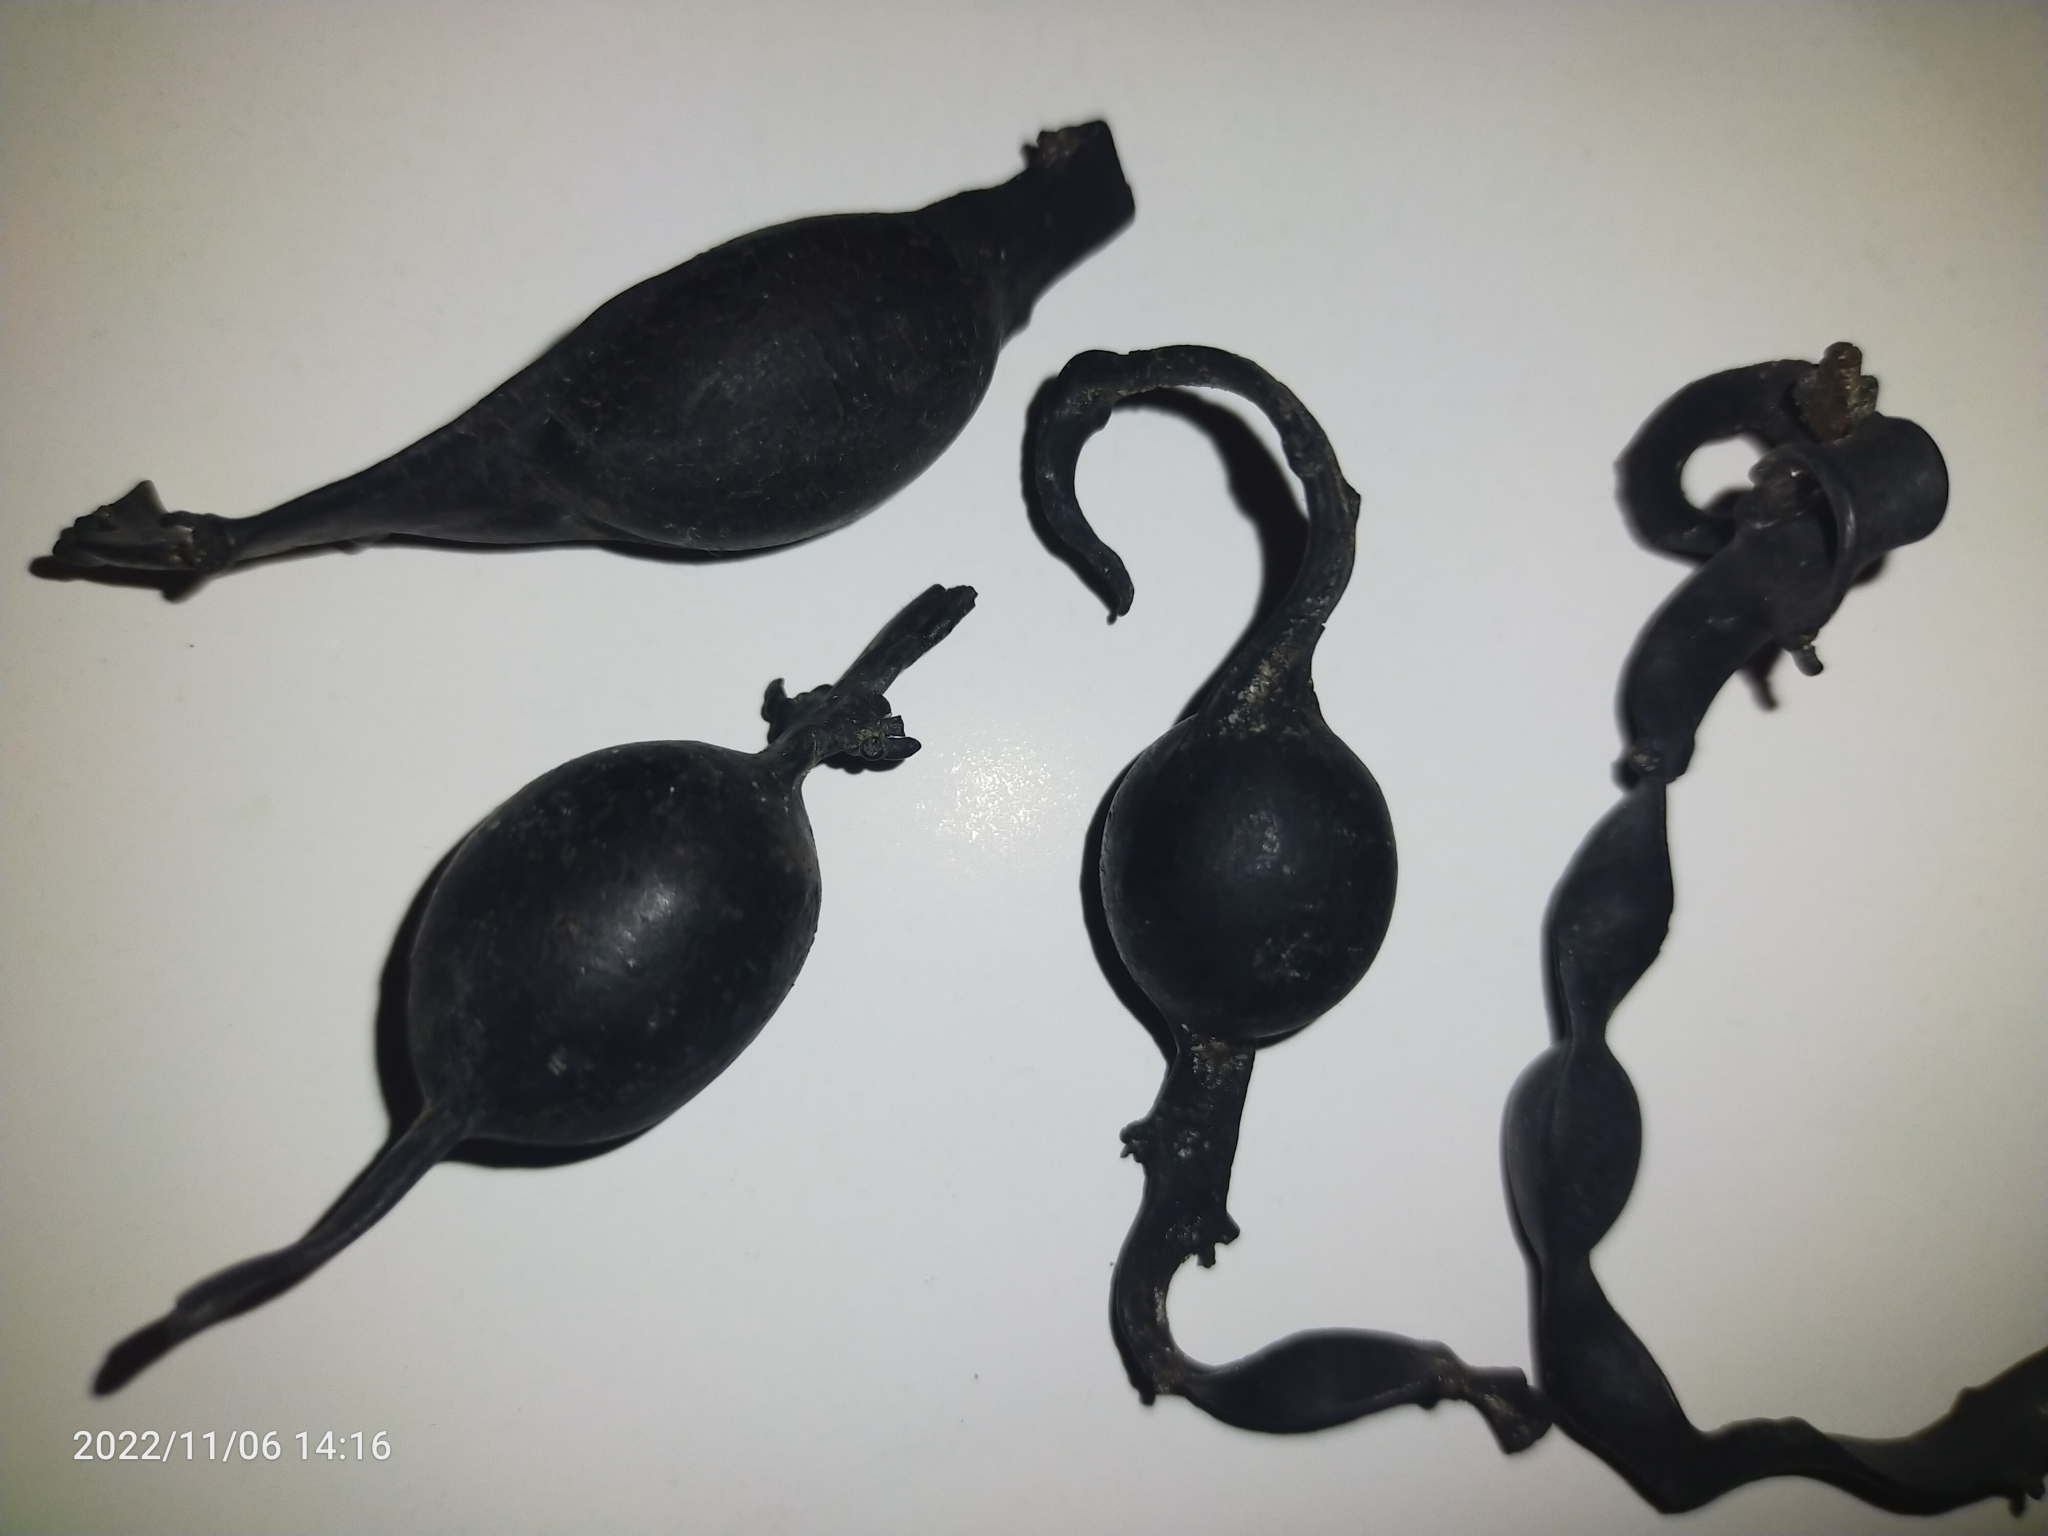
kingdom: Chromista
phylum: Ochrophyta
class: Phaeophyceae
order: Fucales
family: Fucaceae
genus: Ascophyllum
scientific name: Ascophyllum nodosum
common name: Knotted wrack
